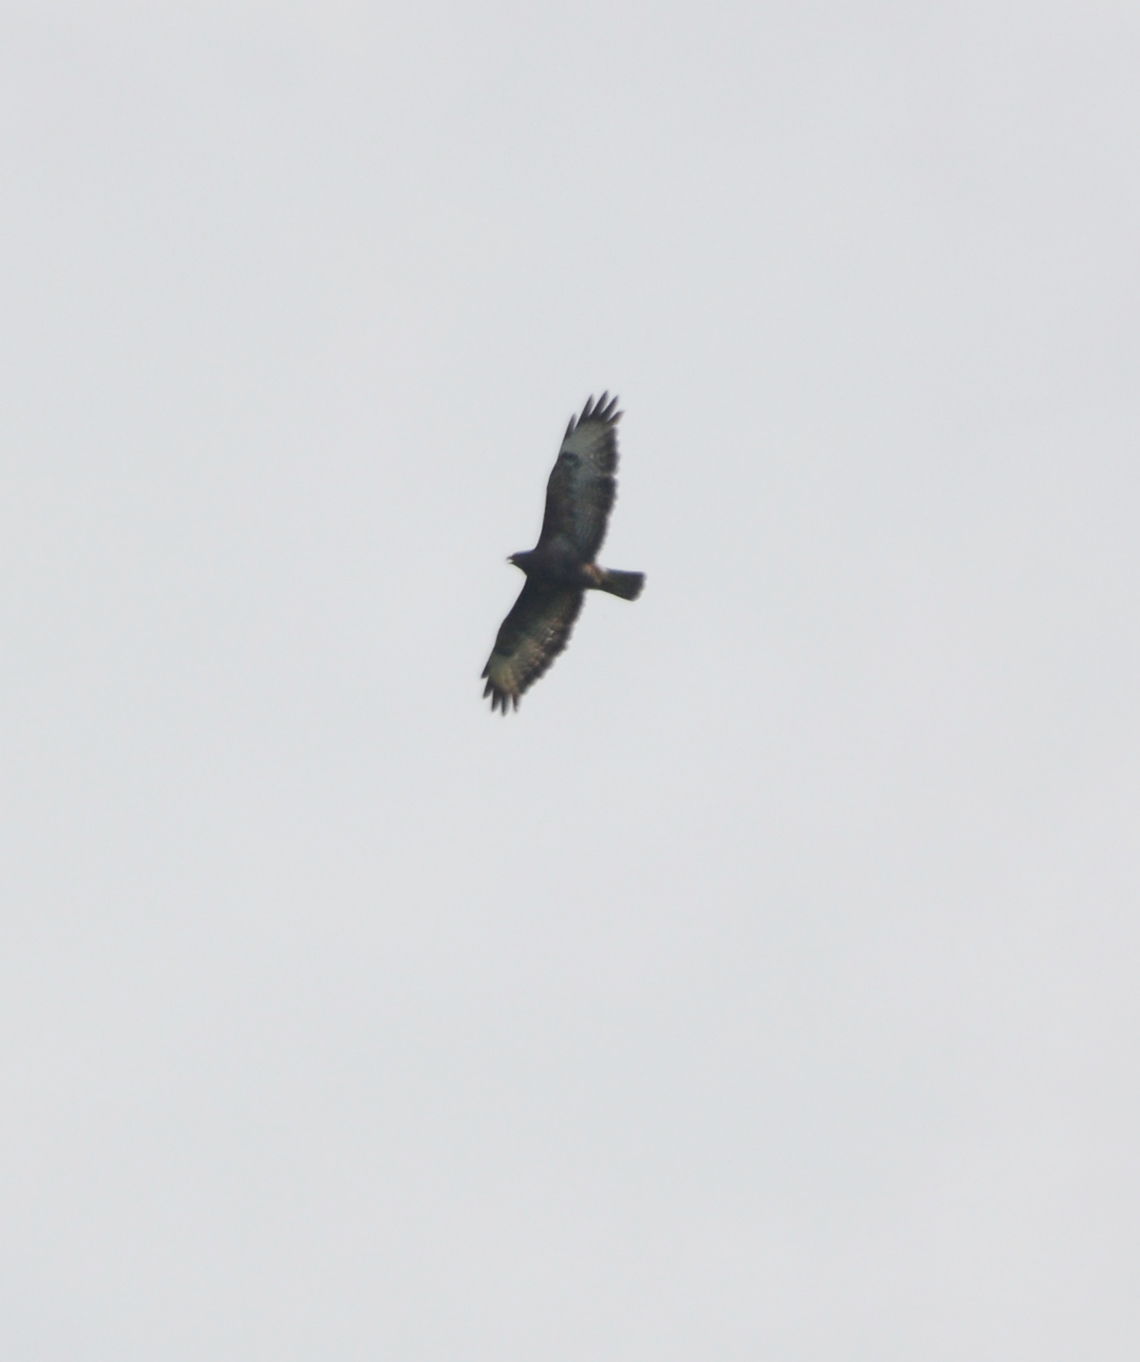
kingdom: Animalia
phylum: Chordata
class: Aves
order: Accipitriformes
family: Accipitridae
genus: Buteo
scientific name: Buteo buteo
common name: Common buzzard
